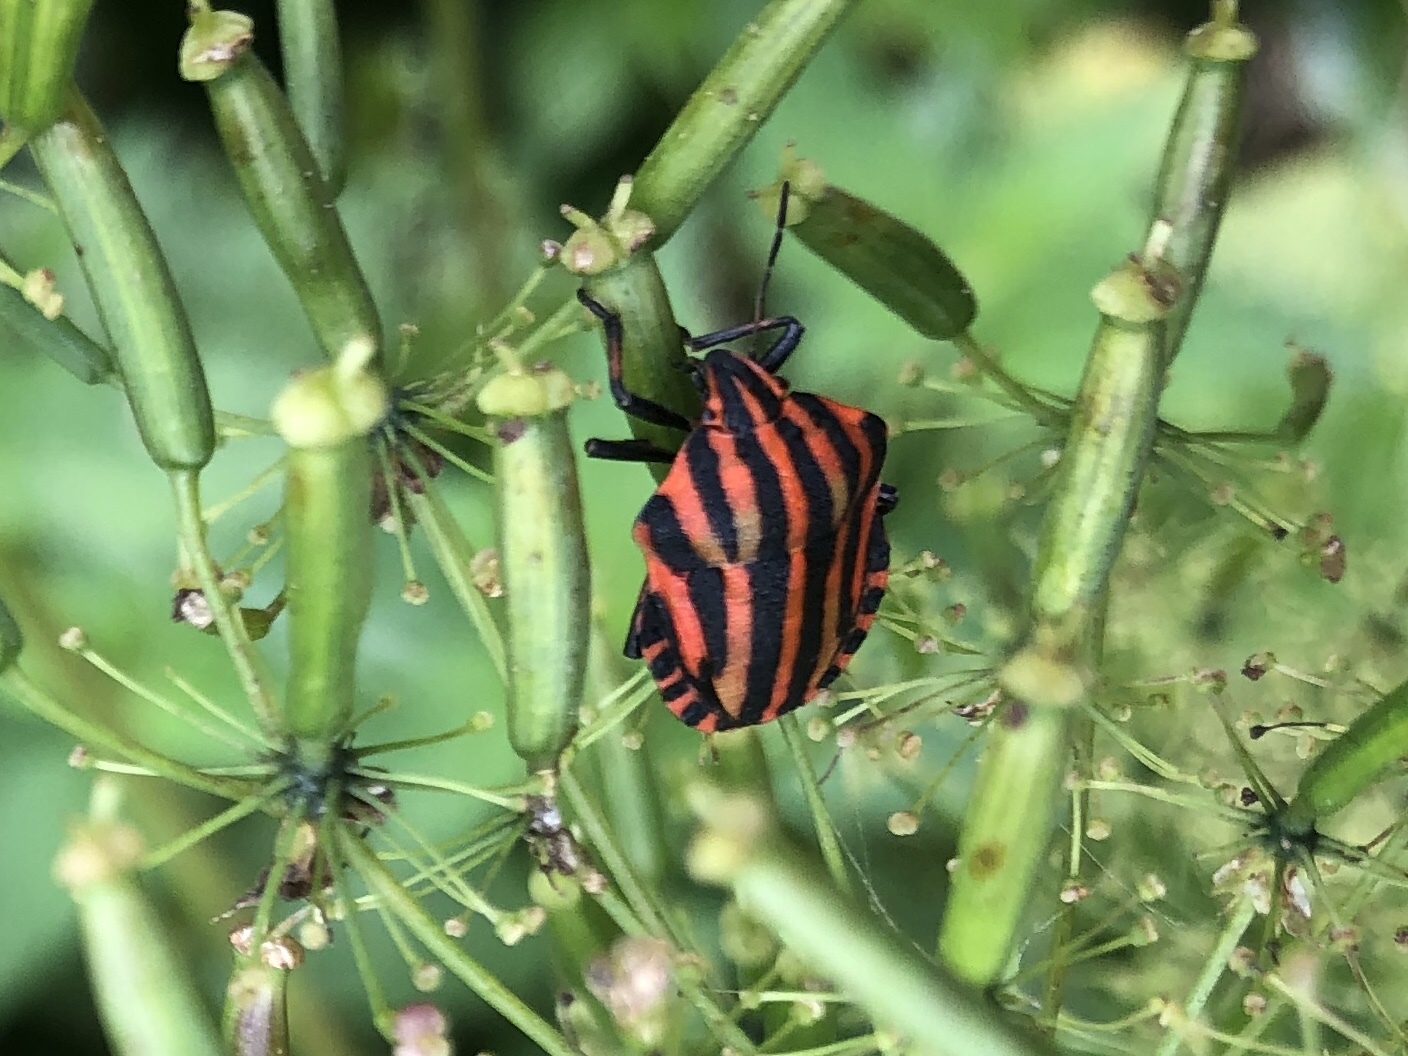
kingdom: Animalia
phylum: Arthropoda
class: Insecta
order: Hemiptera
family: Pentatomidae
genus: Graphosoma
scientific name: Graphosoma italicum
